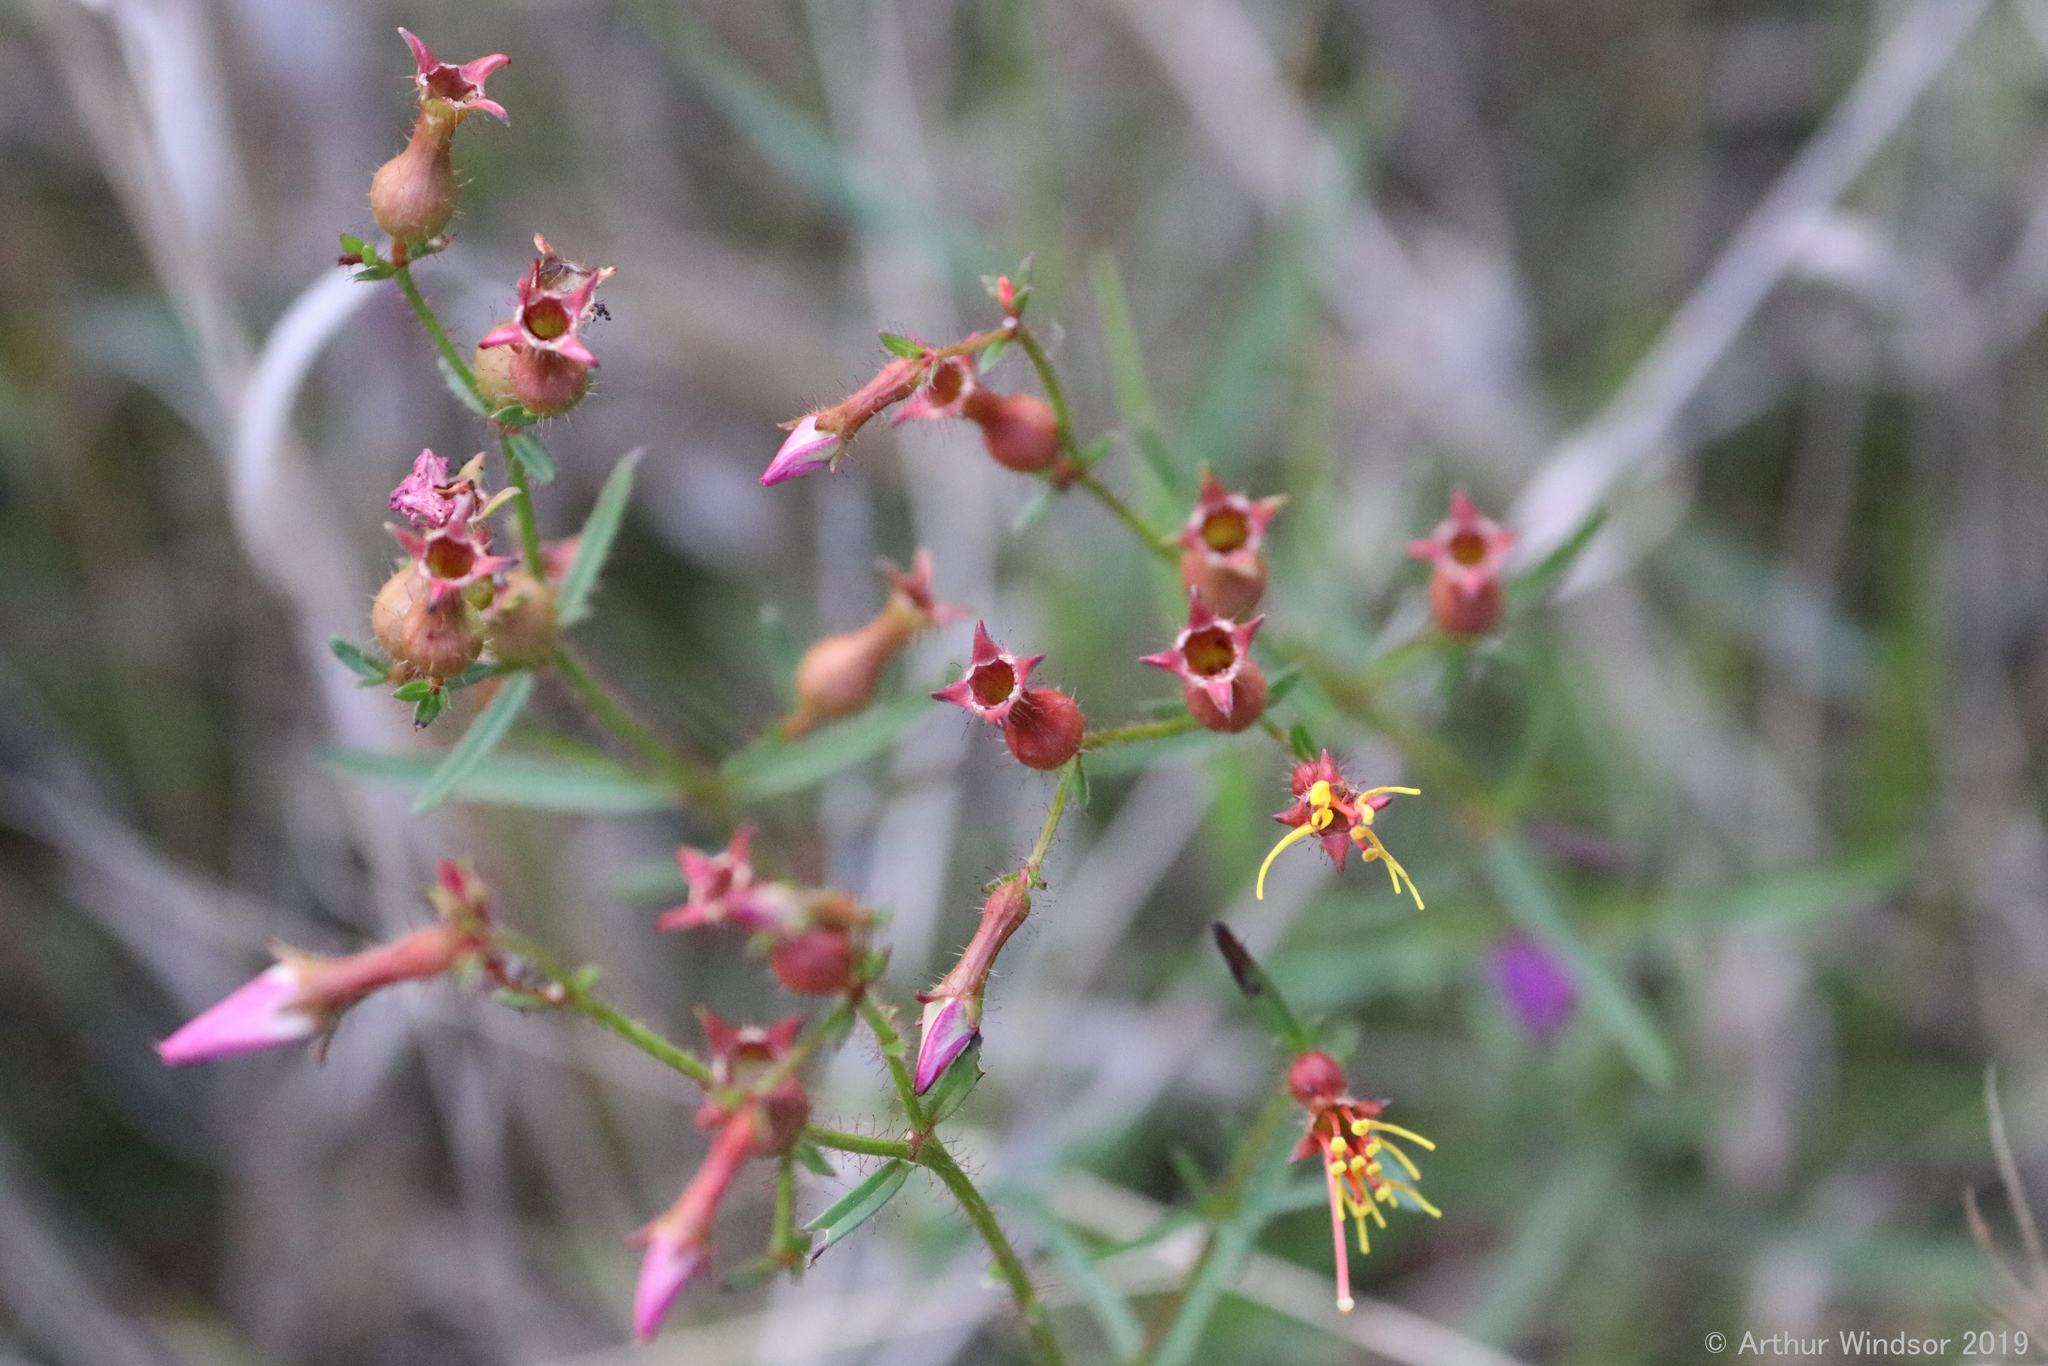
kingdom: Plantae
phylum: Tracheophyta
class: Magnoliopsida
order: Myrtales
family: Melastomataceae
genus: Rhexia
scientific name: Rhexia cubensis
